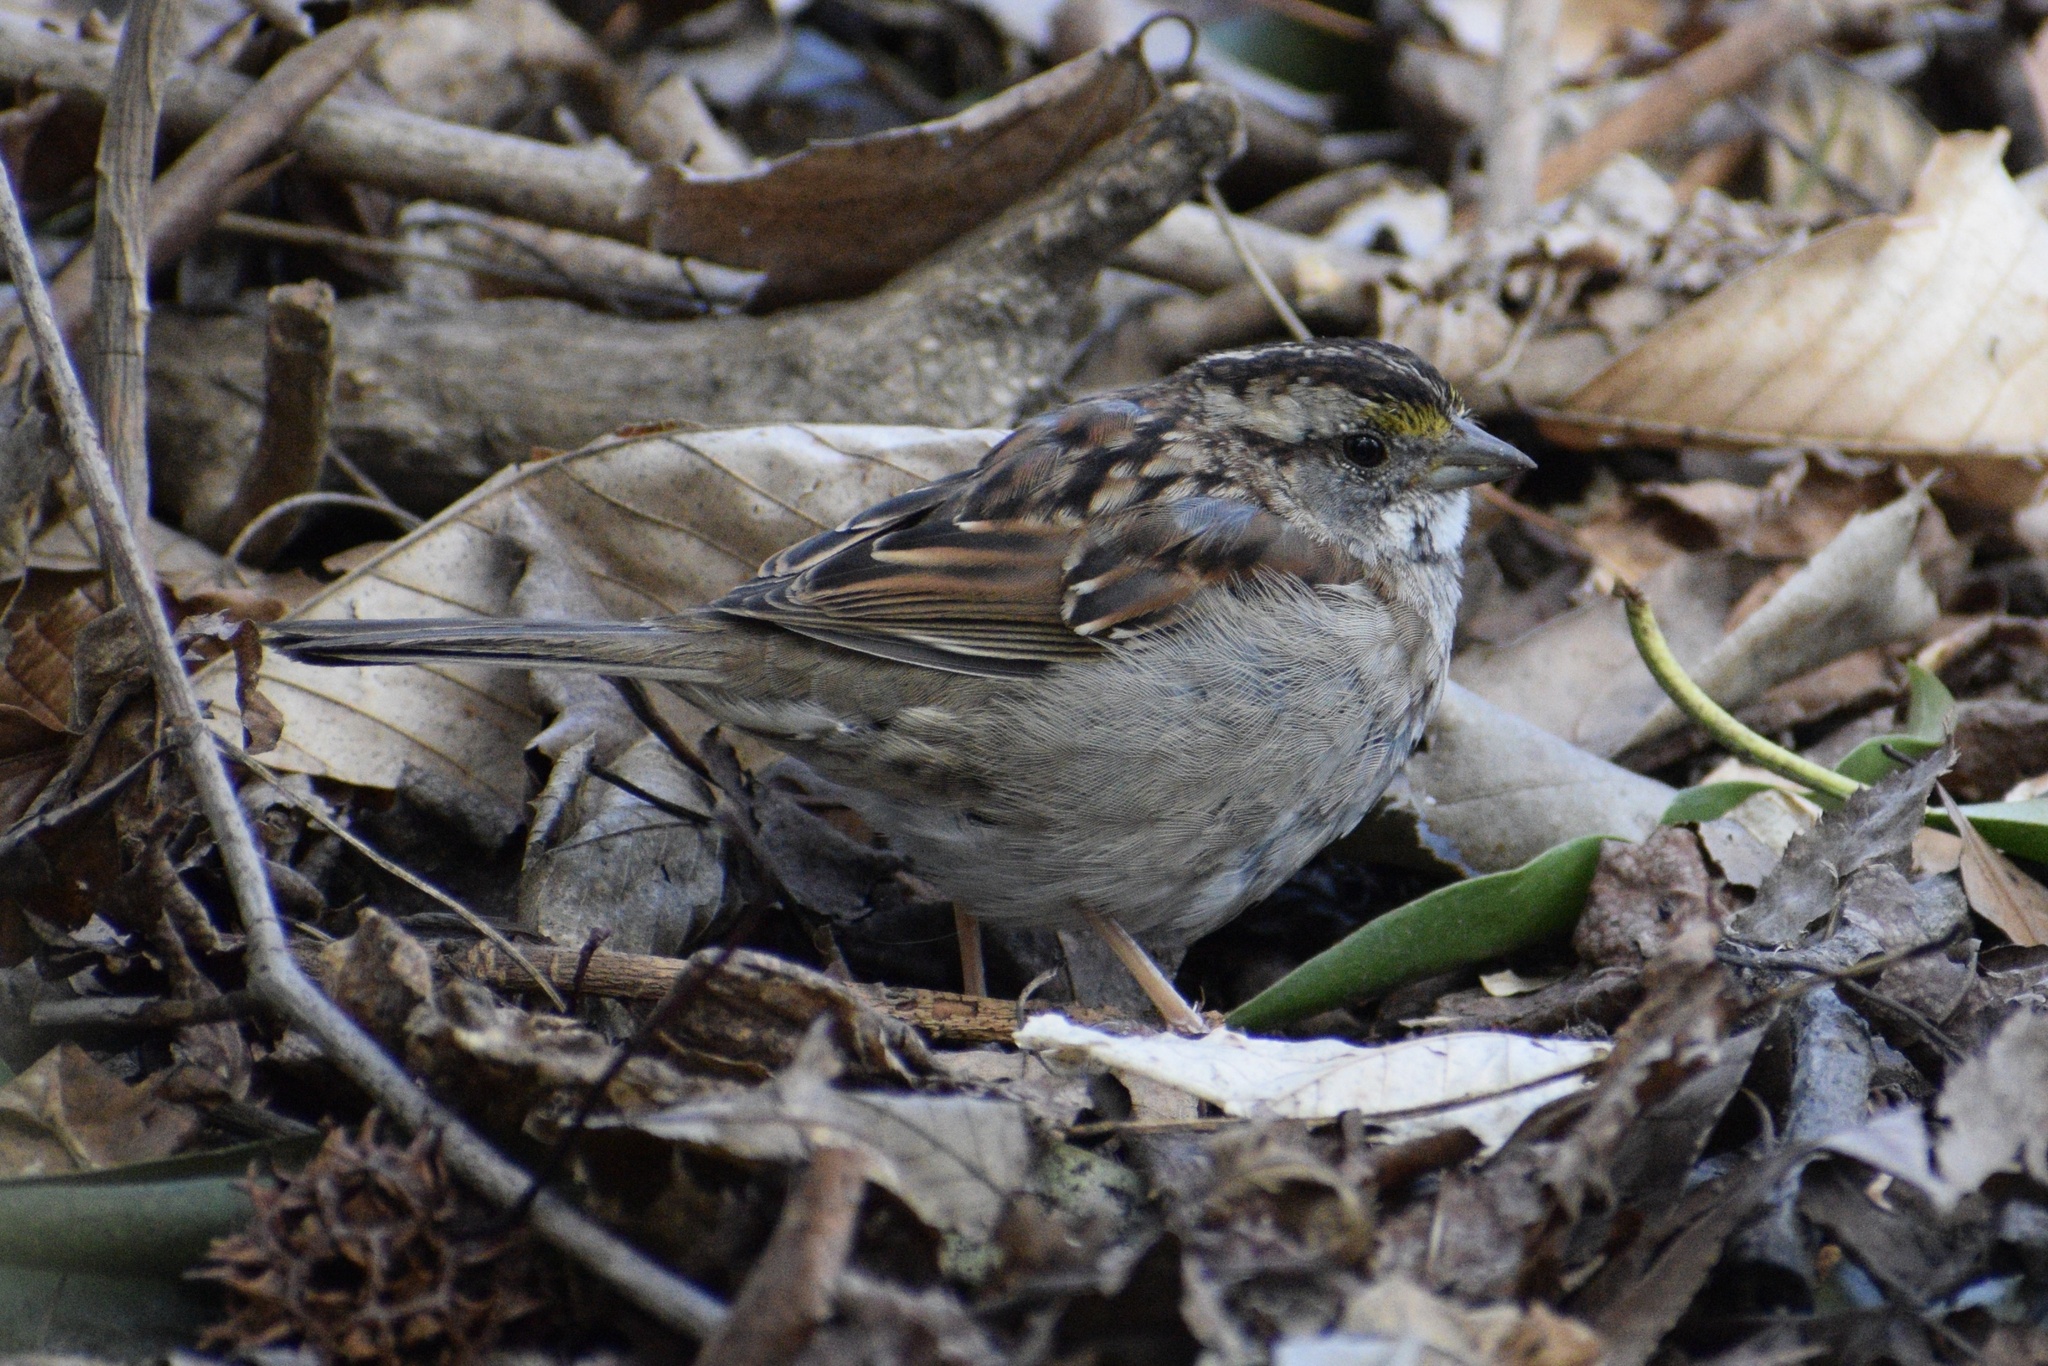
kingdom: Animalia
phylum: Chordata
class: Aves
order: Passeriformes
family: Passerellidae
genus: Zonotrichia
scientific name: Zonotrichia albicollis
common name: White-throated sparrow
